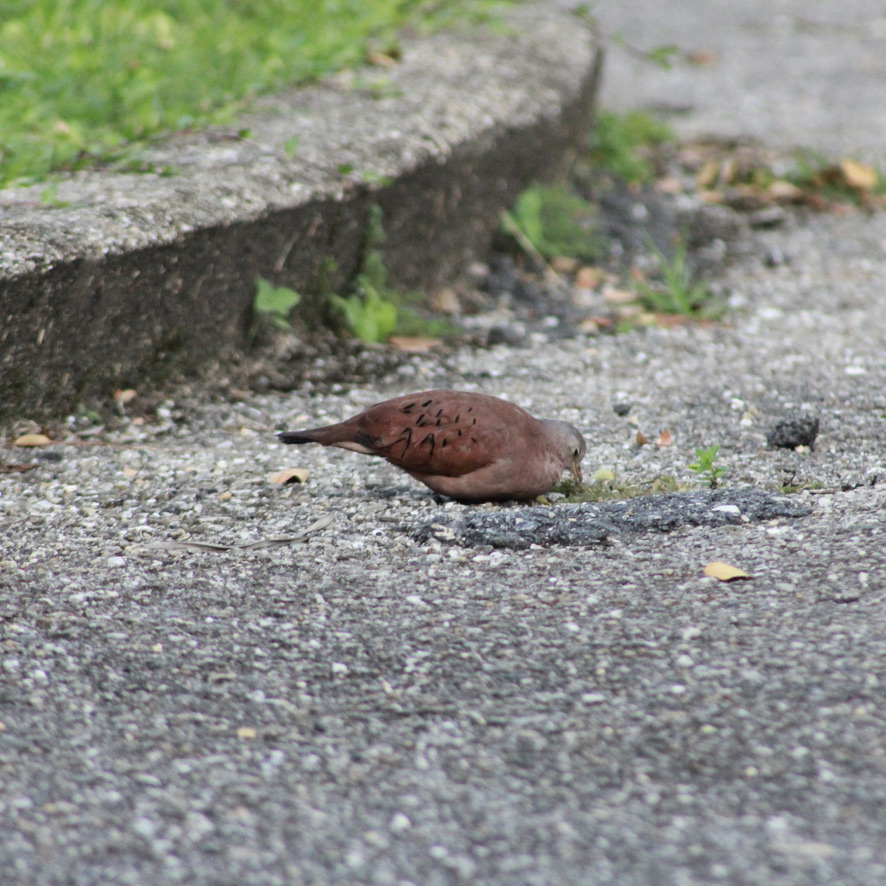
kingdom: Animalia
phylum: Chordata
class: Aves
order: Columbiformes
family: Columbidae
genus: Columbina
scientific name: Columbina talpacoti
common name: Ruddy ground dove
